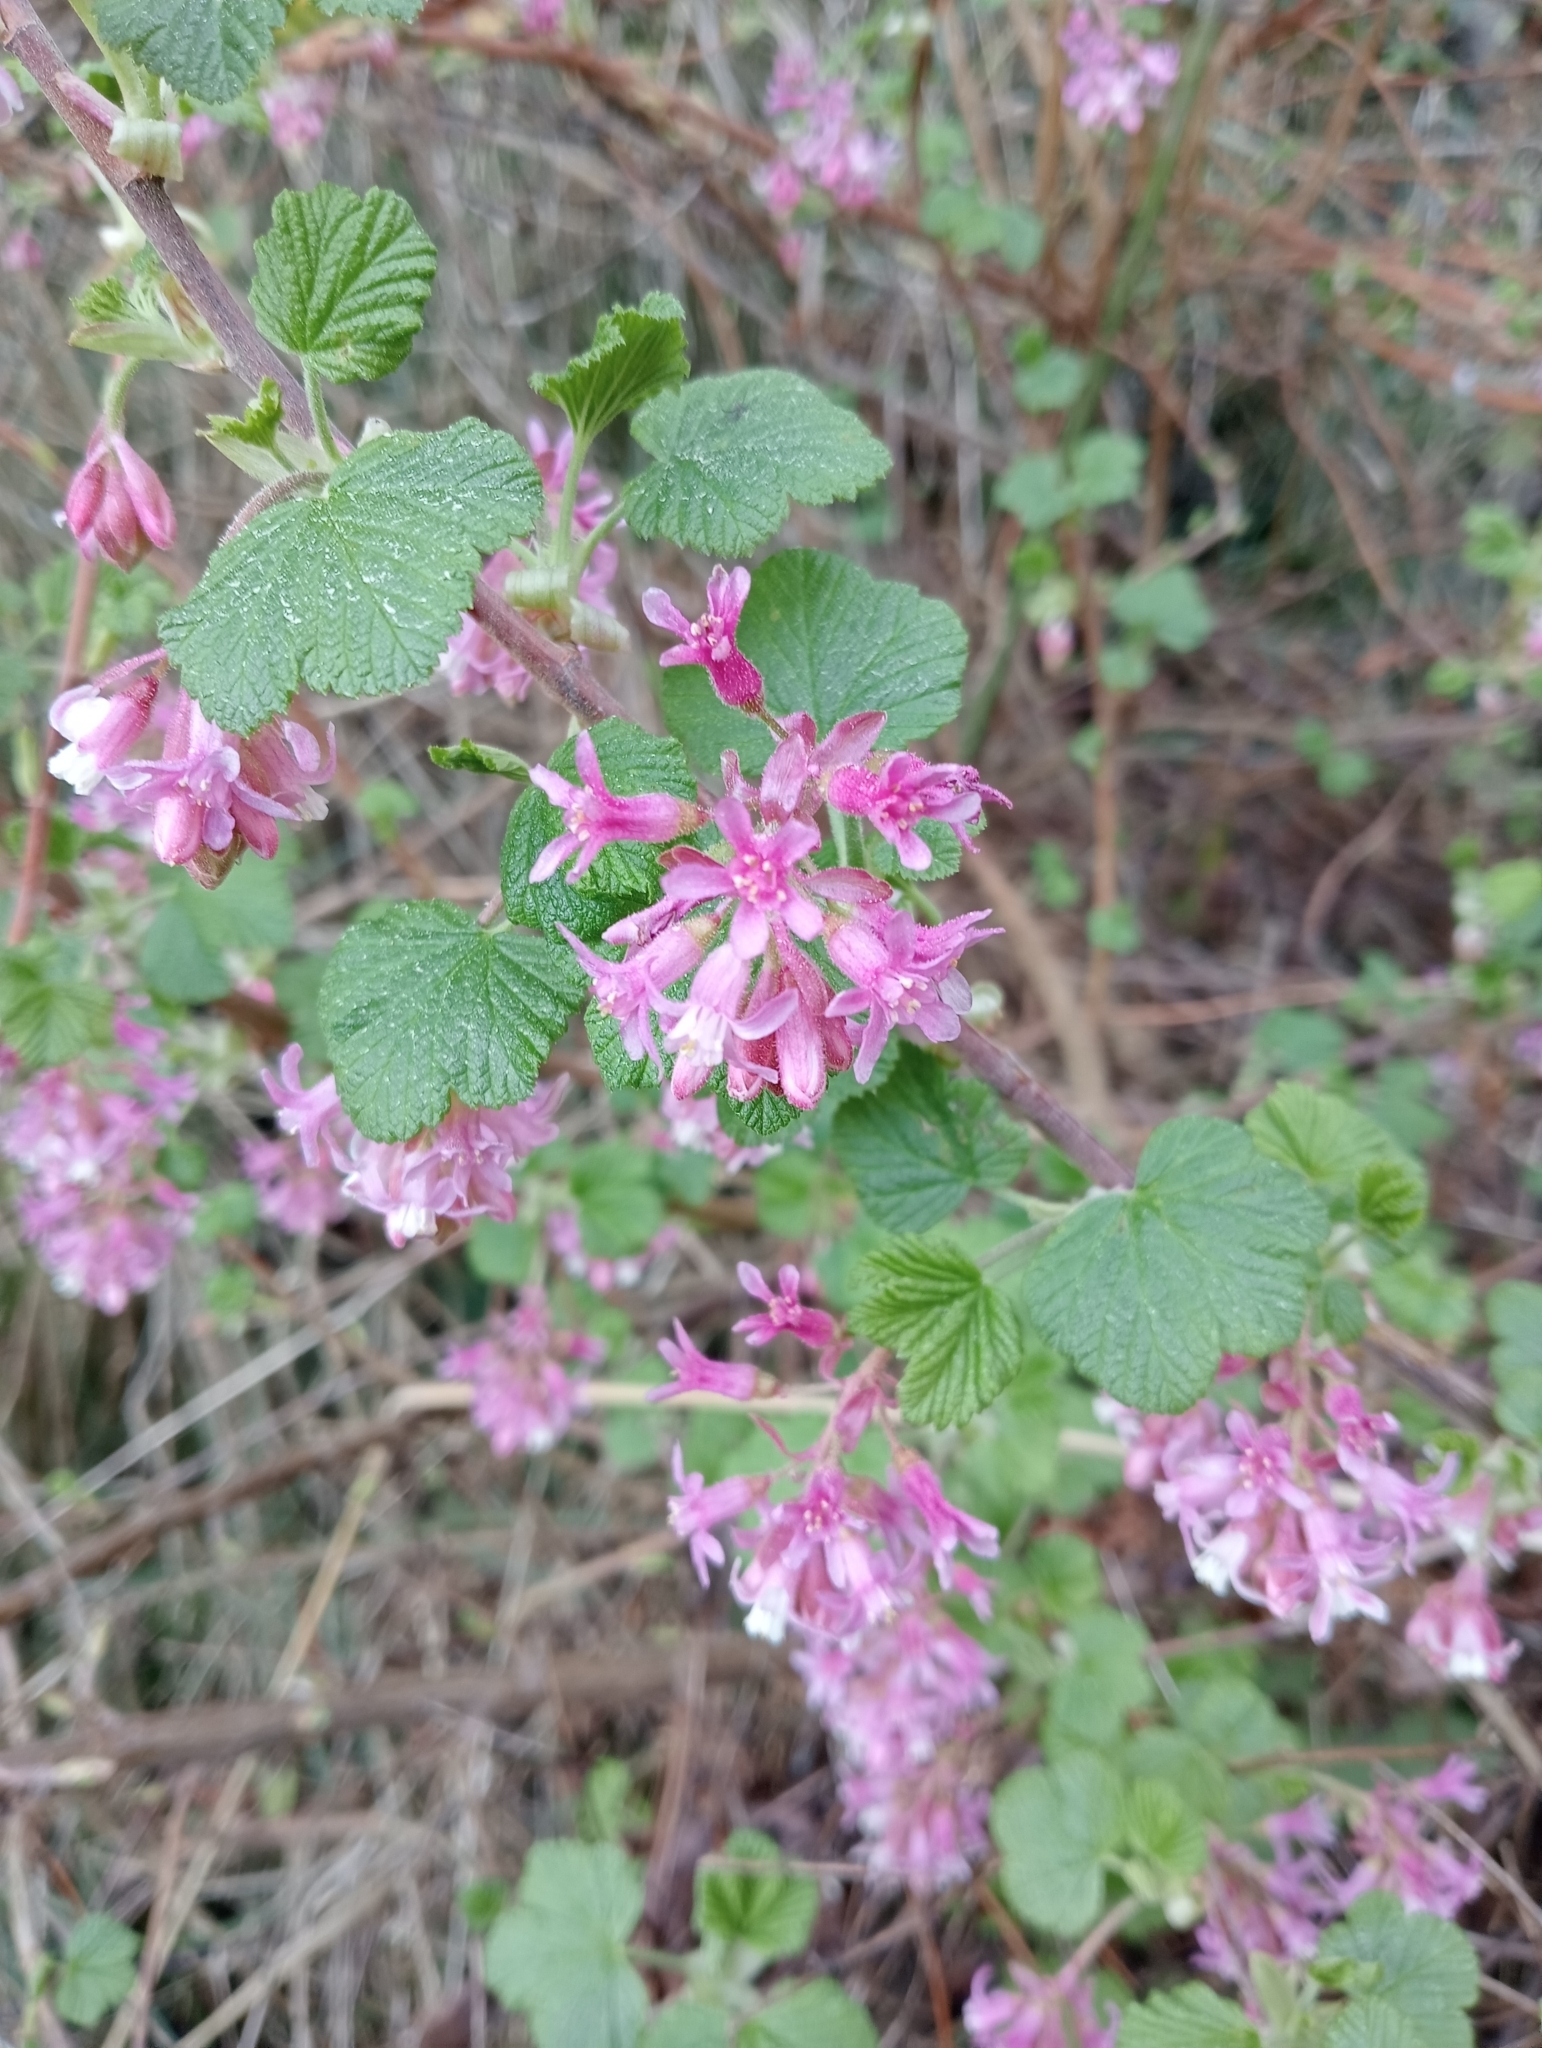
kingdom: Plantae
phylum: Tracheophyta
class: Magnoliopsida
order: Saxifragales
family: Grossulariaceae
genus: Ribes
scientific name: Ribes sanguineum
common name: Flowering currant
